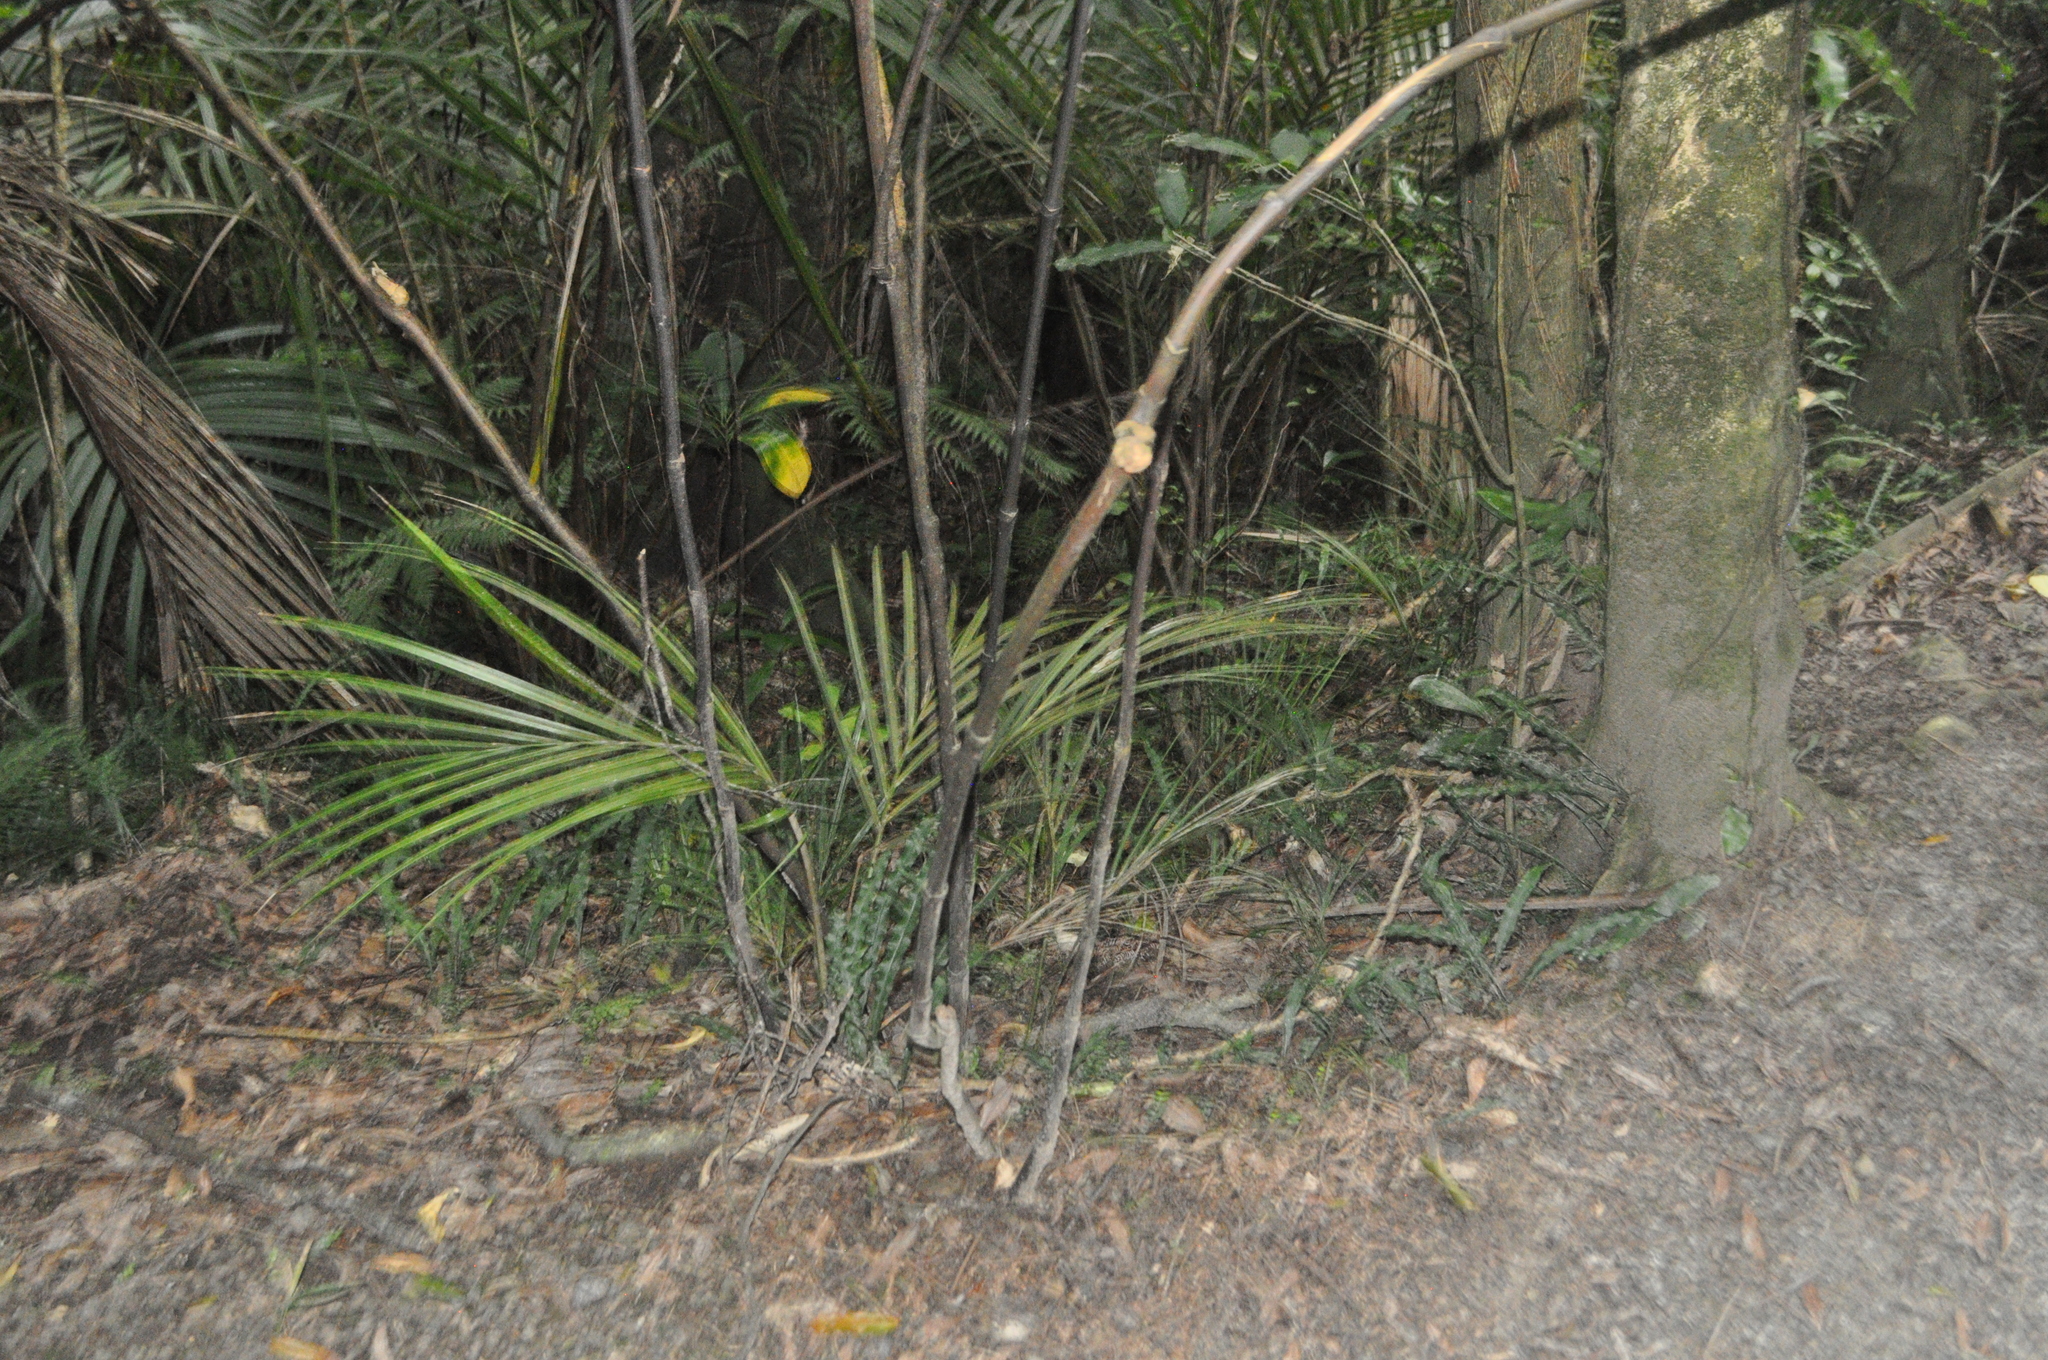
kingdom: Plantae
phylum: Tracheophyta
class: Liliopsida
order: Arecales
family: Arecaceae
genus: Rhopalostylis
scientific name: Rhopalostylis sapida
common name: Feather-duster palm
